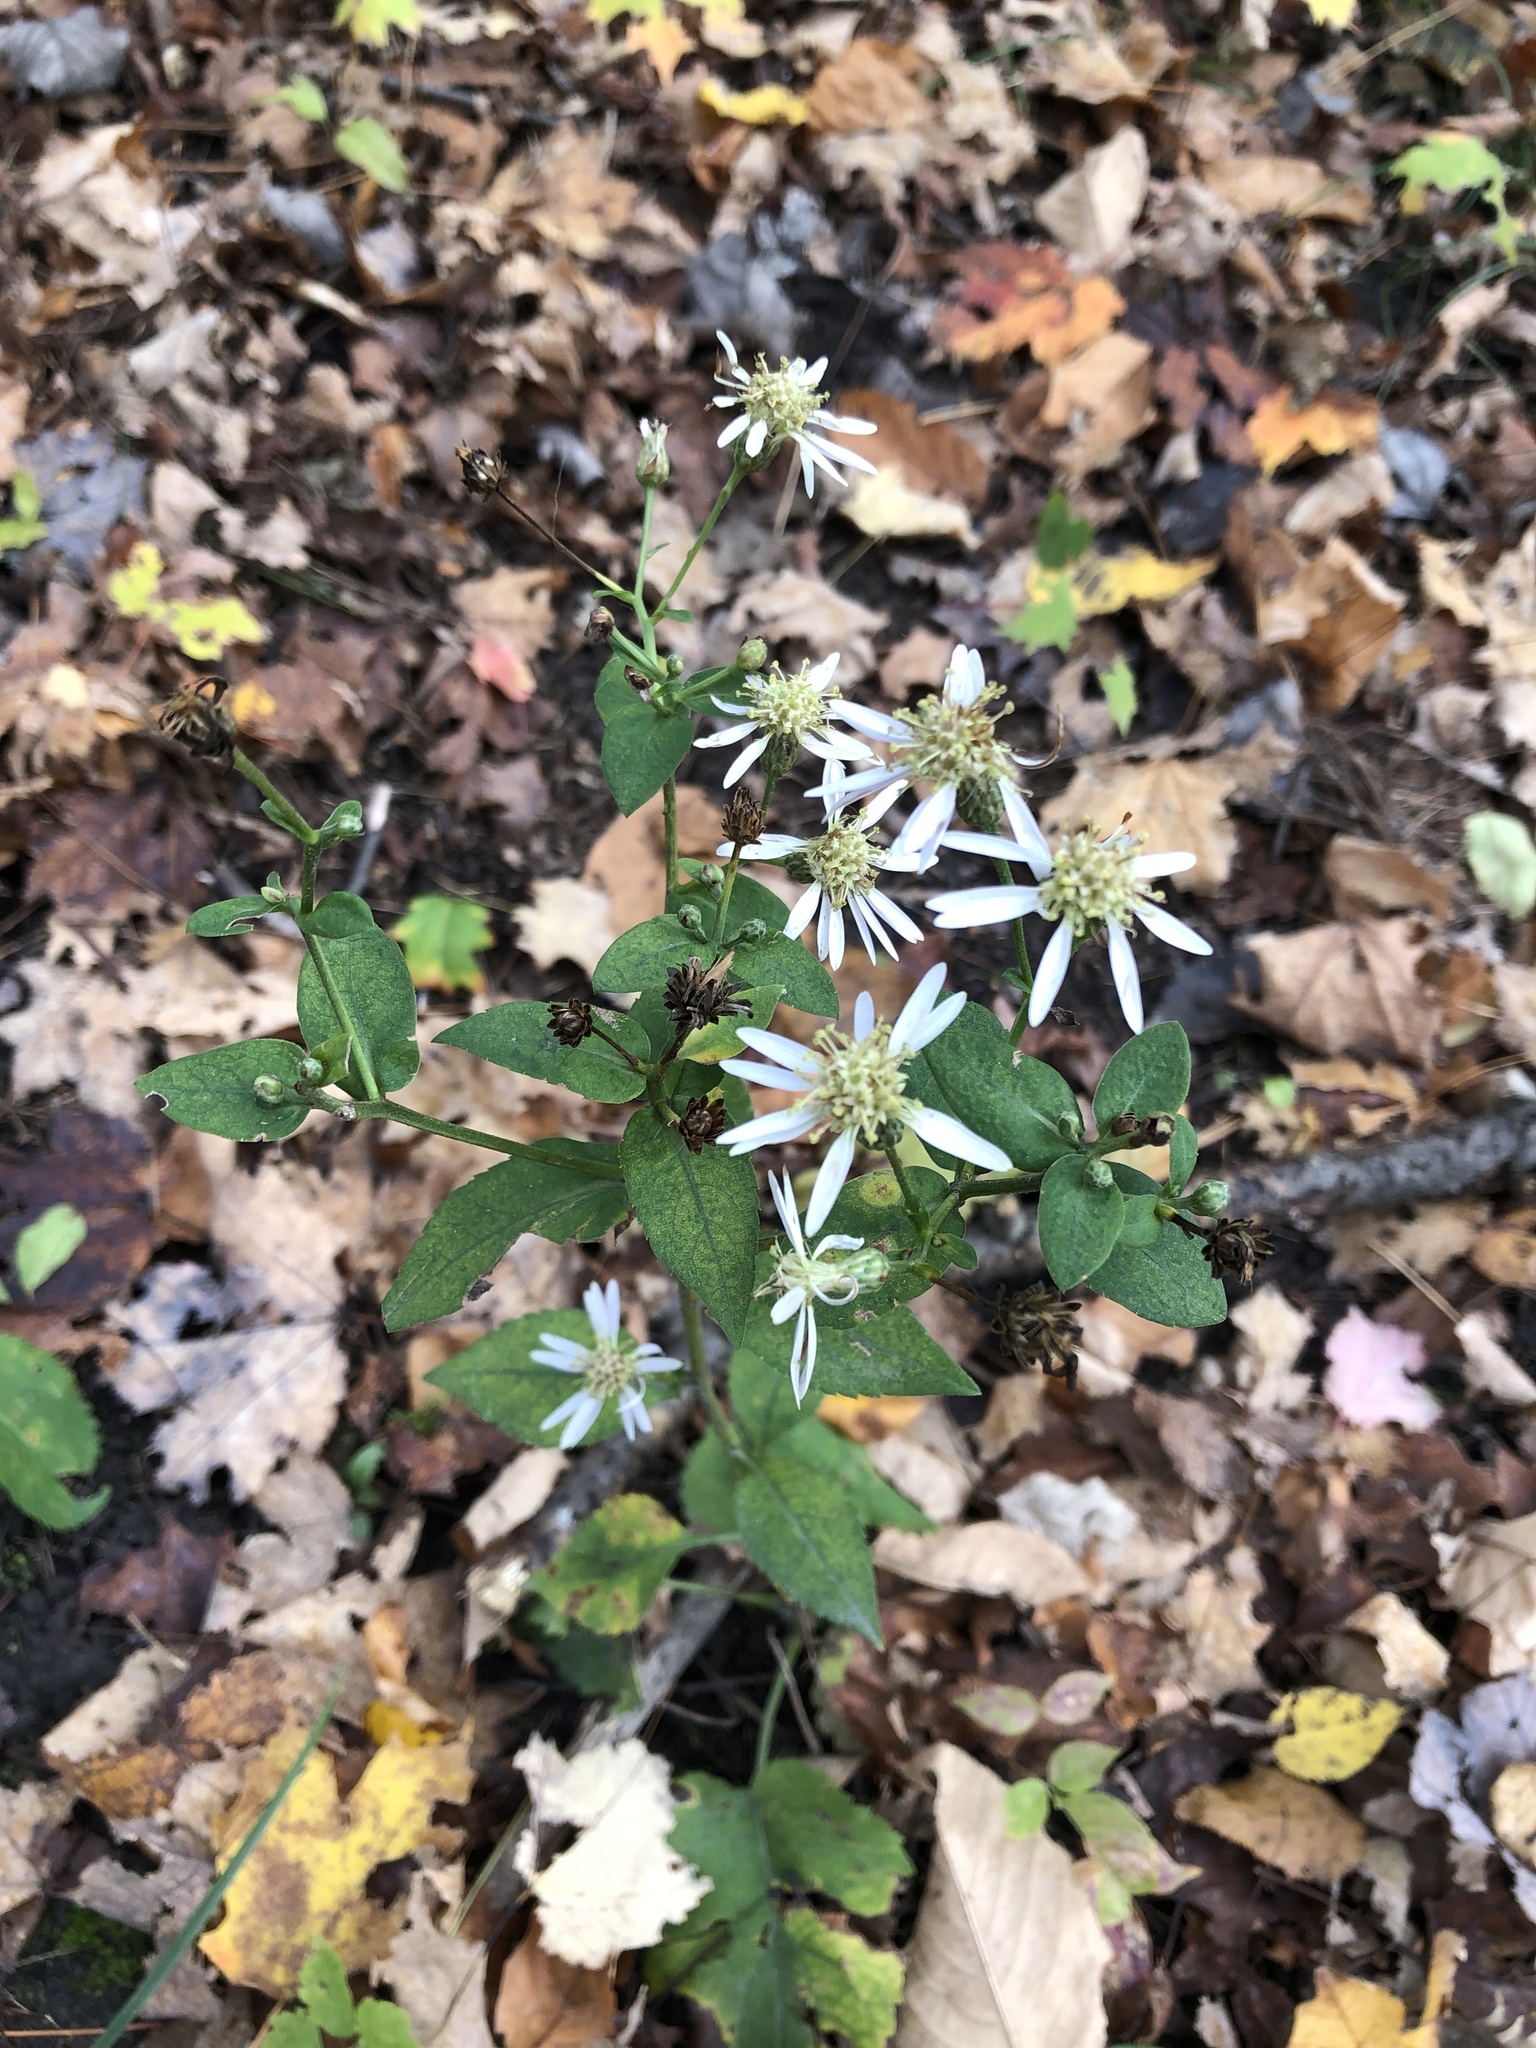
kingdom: Plantae
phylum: Tracheophyta
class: Magnoliopsida
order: Asterales
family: Asteraceae
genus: Eurybia
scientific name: Eurybia macrophylla
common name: Big-leaved aster
